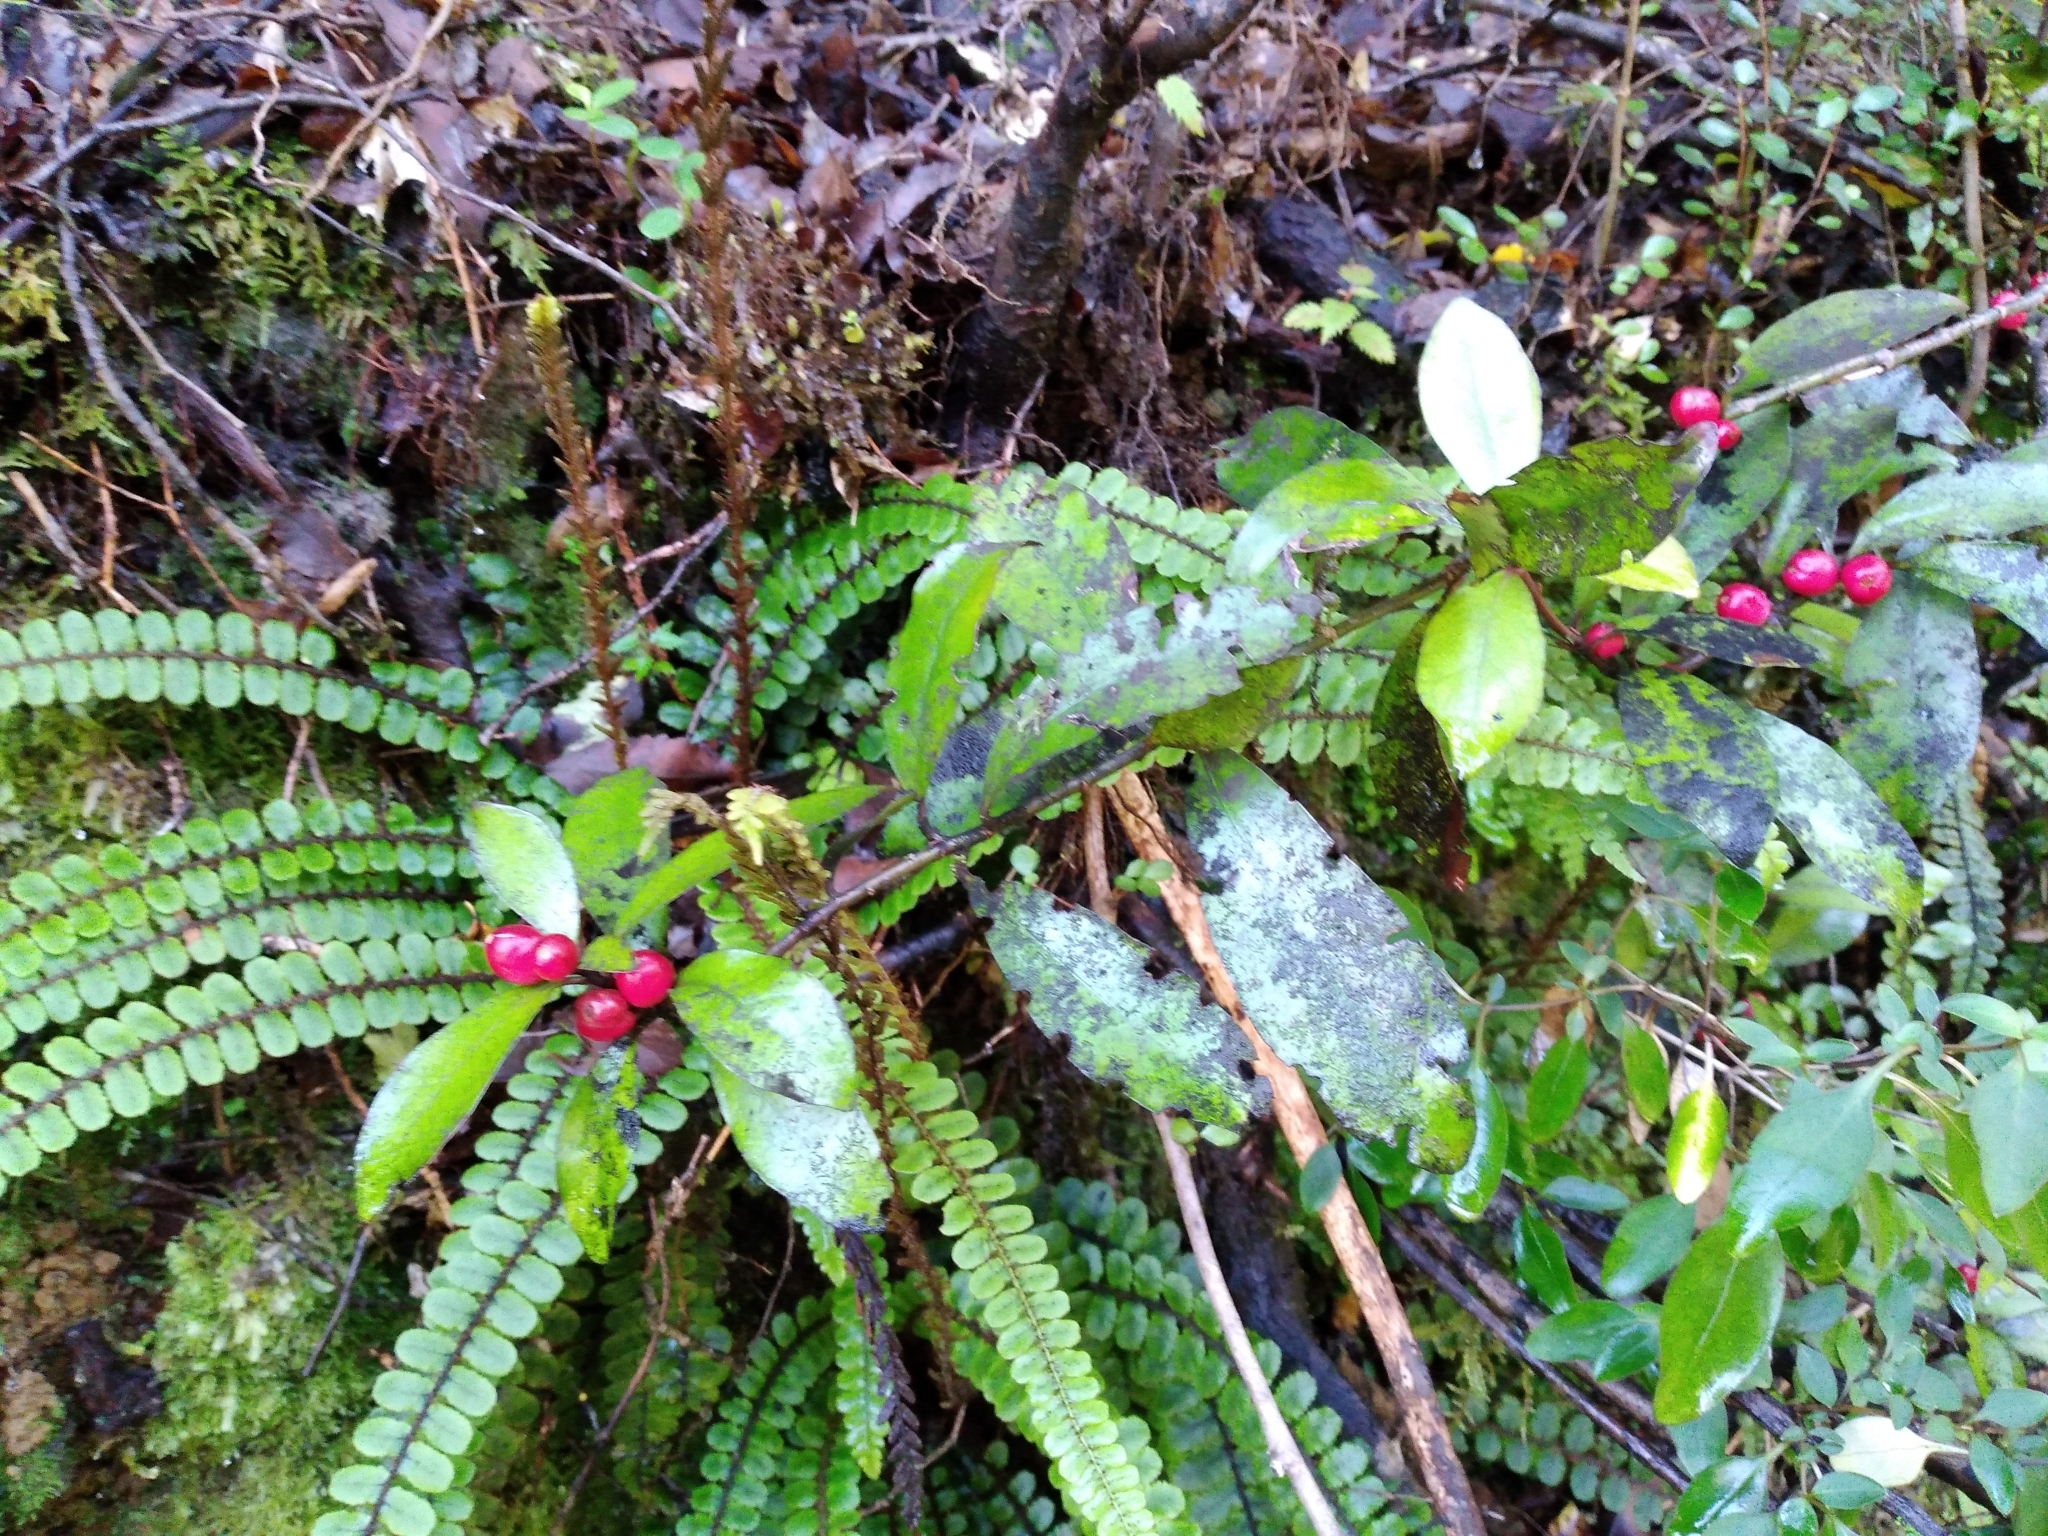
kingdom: Plantae
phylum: Tracheophyta
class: Magnoliopsida
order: Asterales
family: Alseuosmiaceae
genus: Alseuosmia
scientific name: Alseuosmia pusilla
